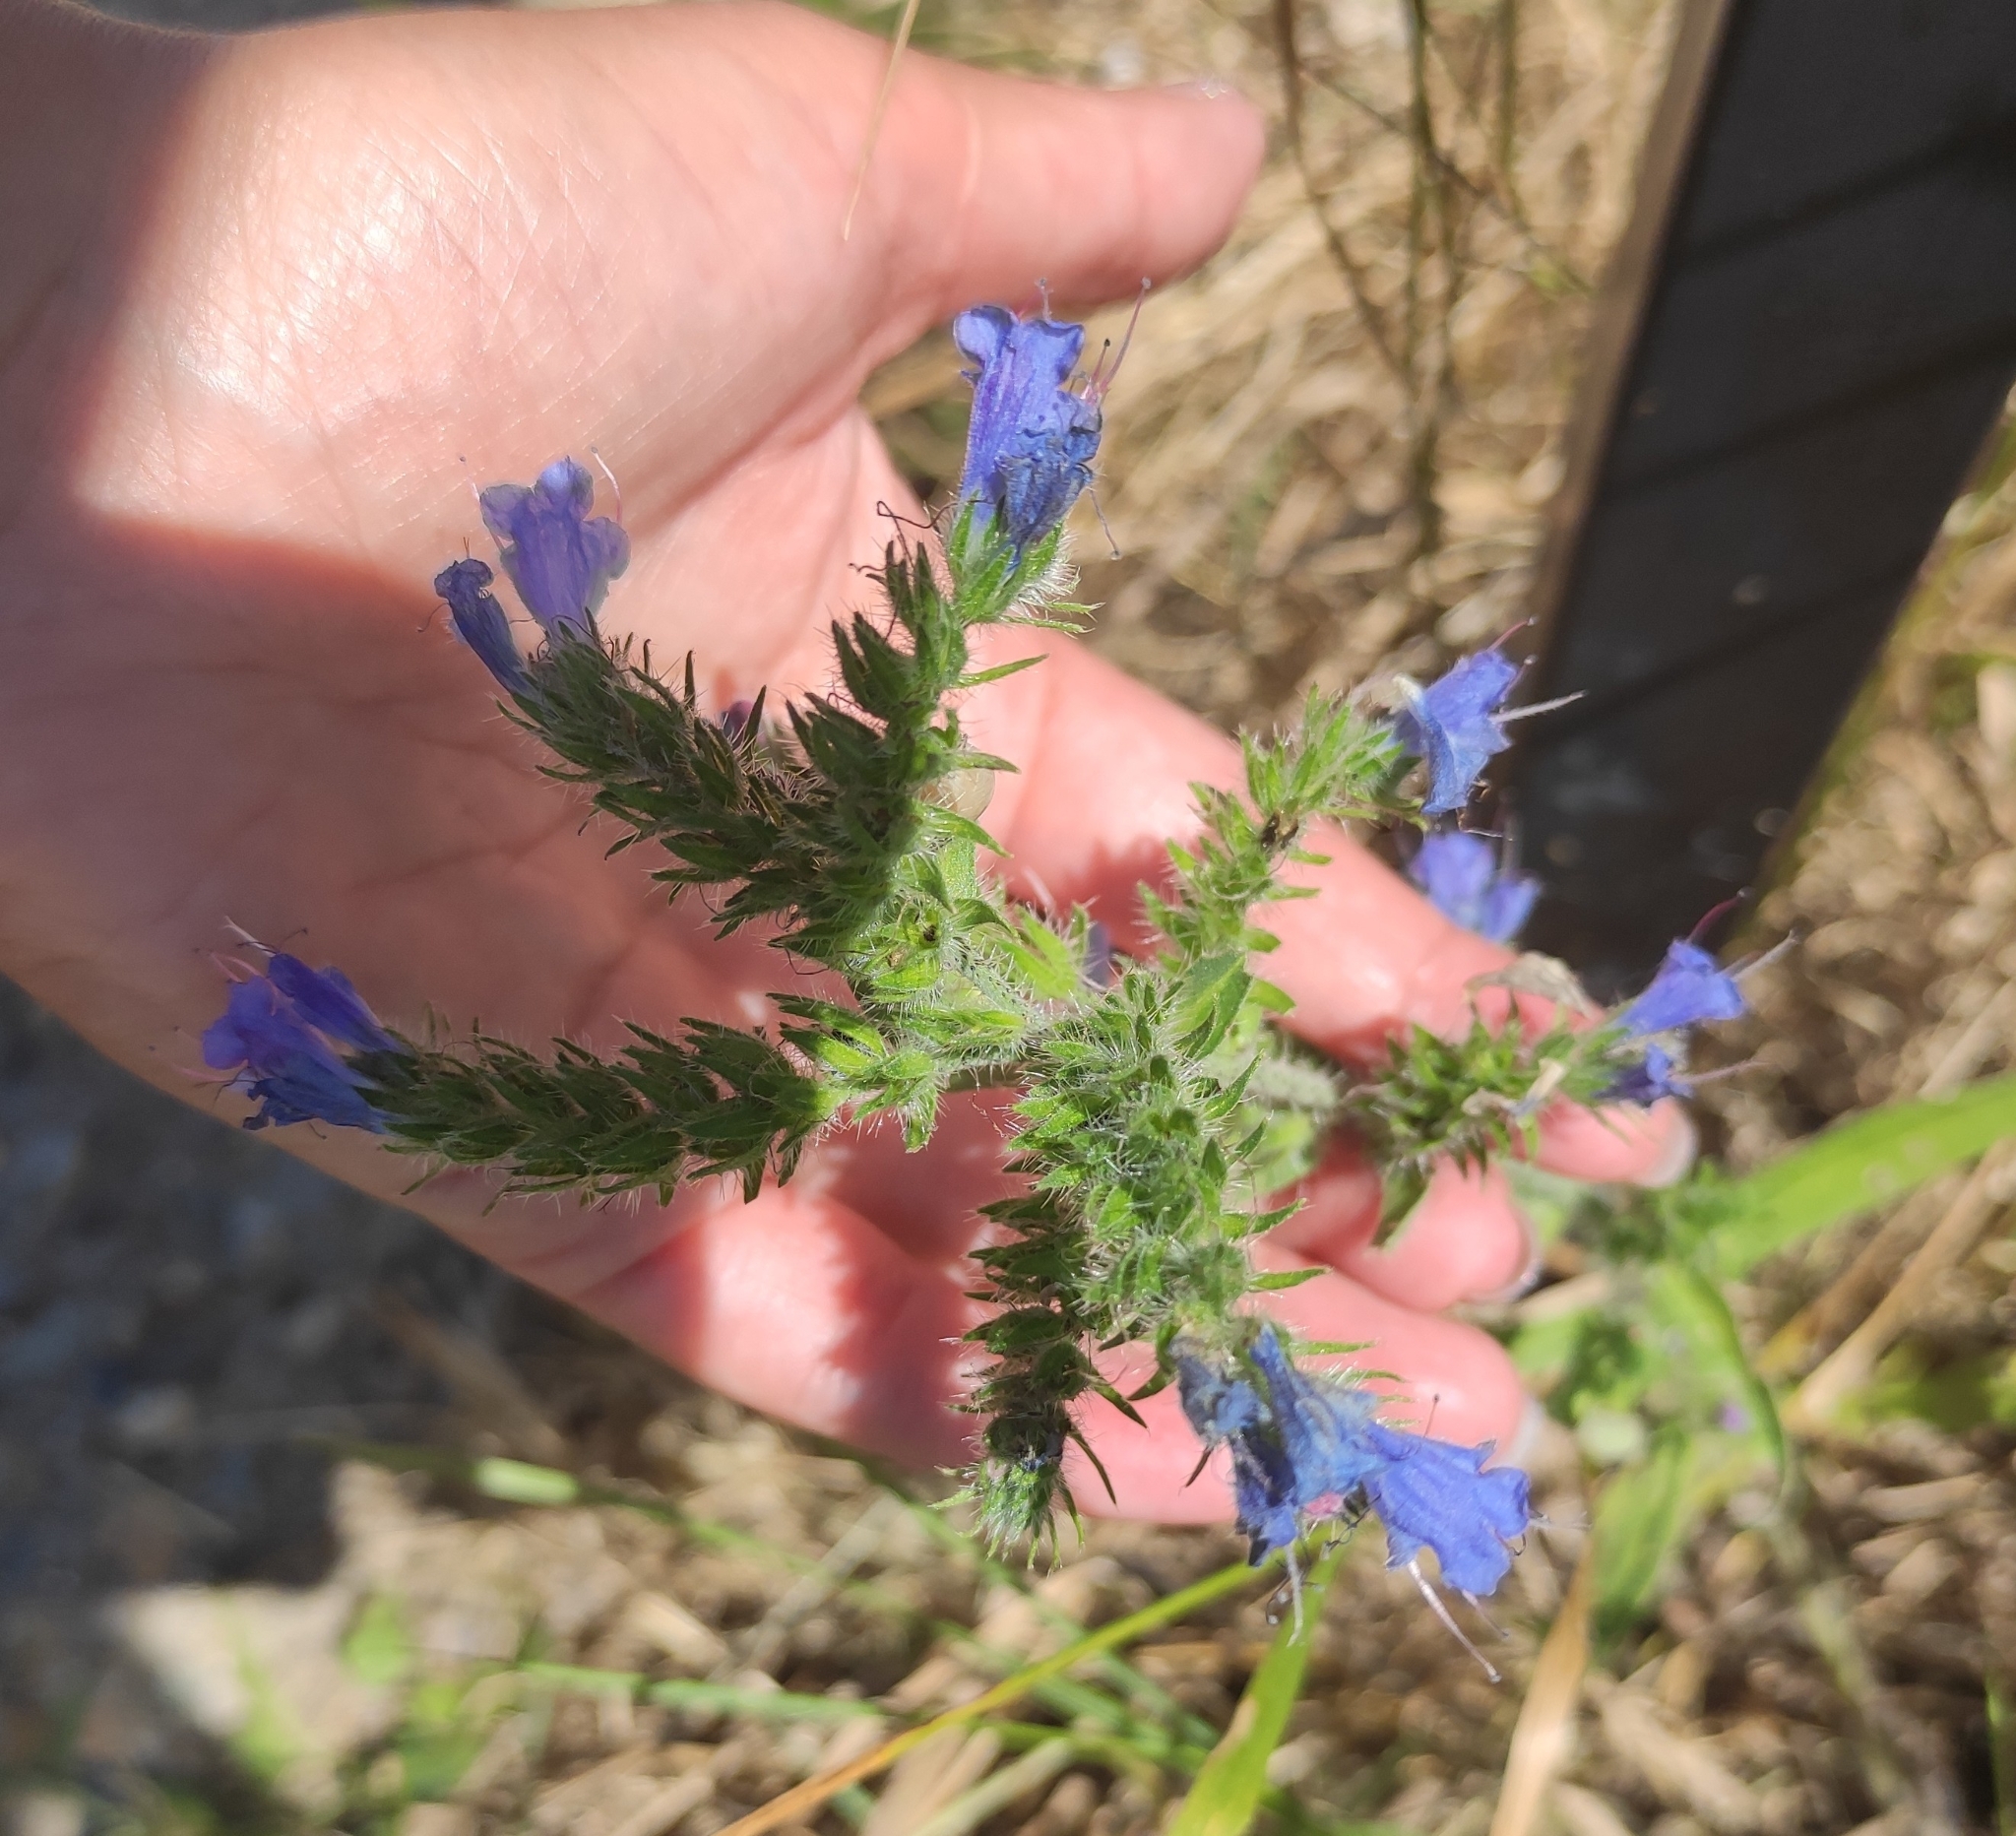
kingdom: Plantae
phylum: Tracheophyta
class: Magnoliopsida
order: Boraginales
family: Boraginaceae
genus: Echium
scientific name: Echium vulgare
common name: Common viper's bugloss
